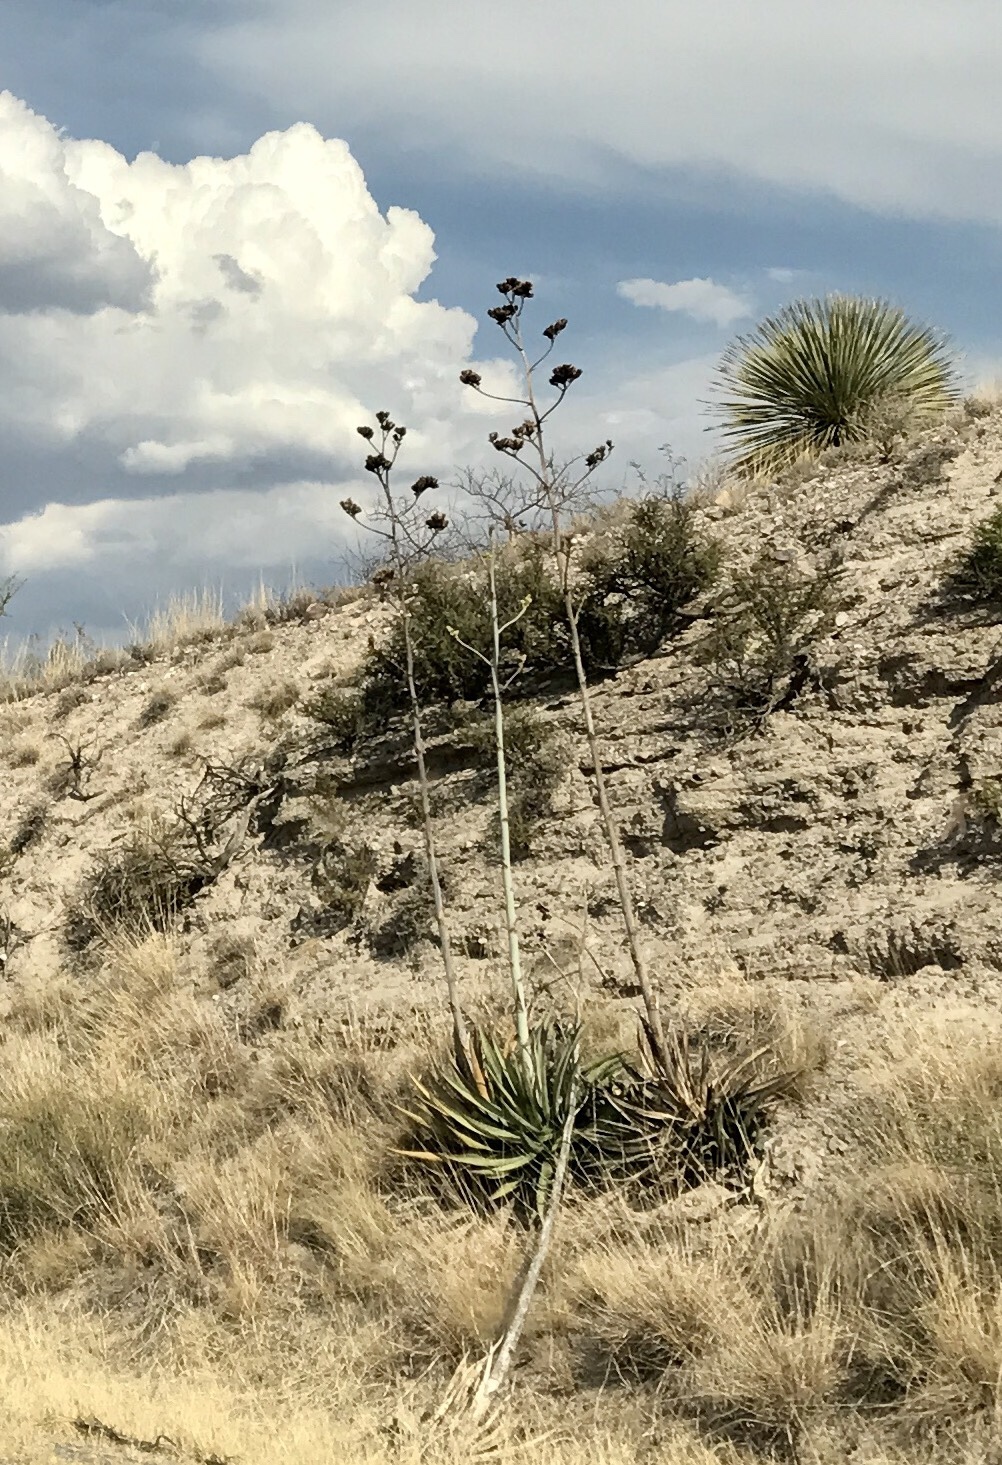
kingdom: Plantae
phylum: Tracheophyta
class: Liliopsida
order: Asparagales
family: Asparagaceae
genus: Agave
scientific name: Agave palmeri
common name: Palmer agave
